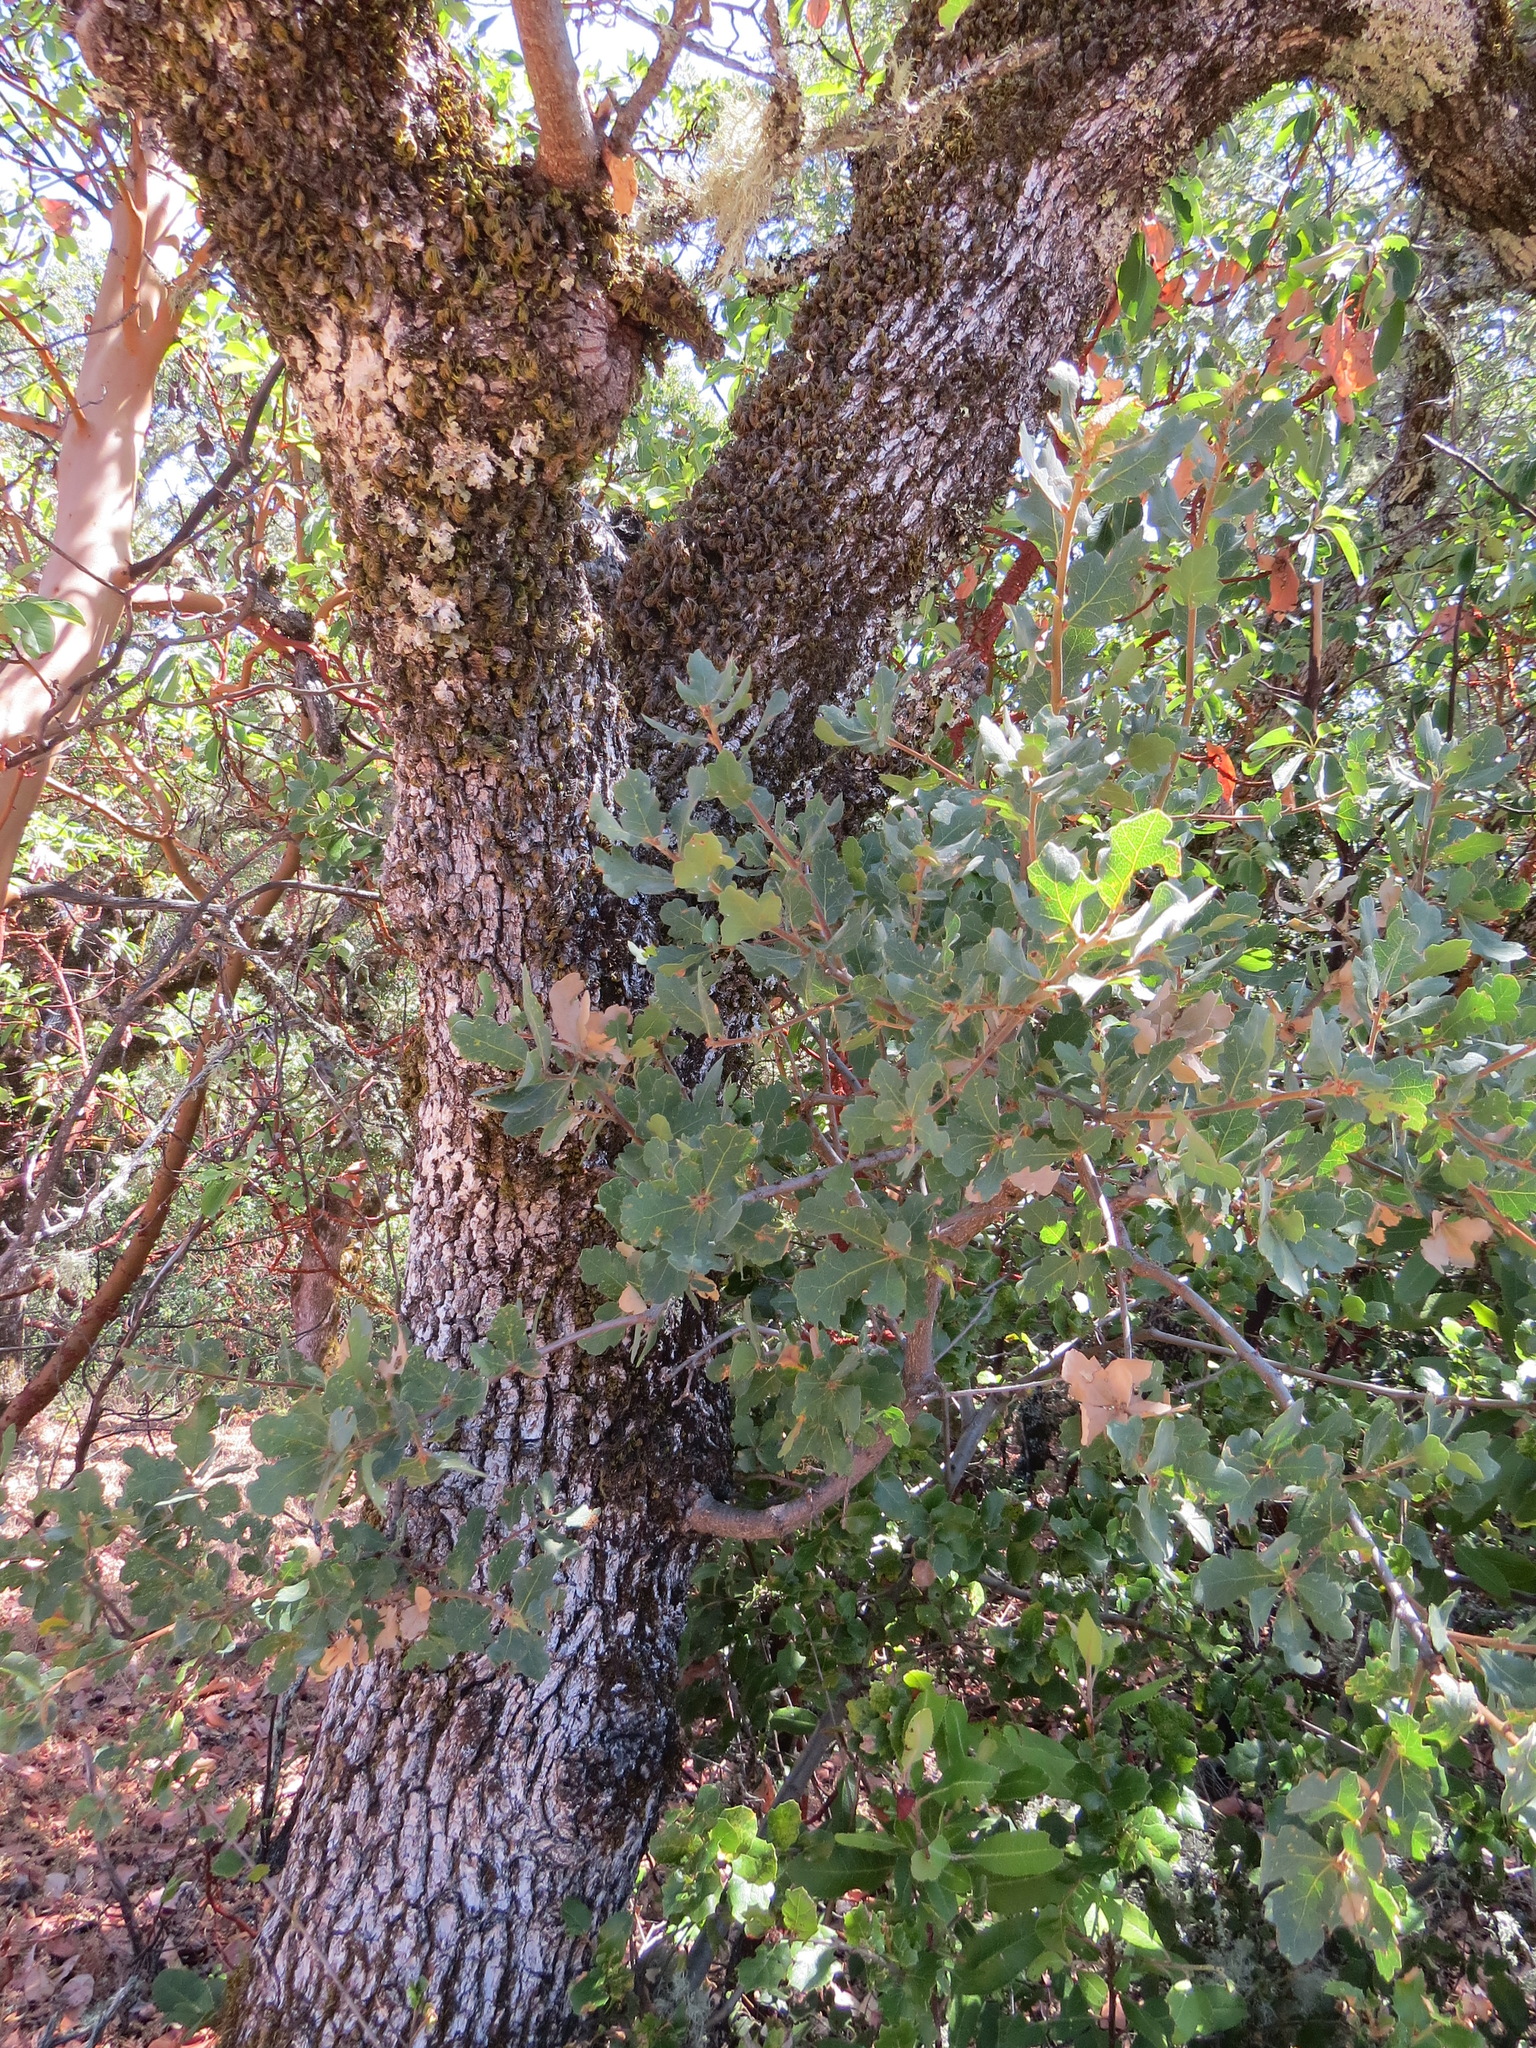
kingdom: Plantae
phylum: Tracheophyta
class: Magnoliopsida
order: Fagales
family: Fagaceae
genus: Quercus
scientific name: Quercus douglasii
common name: Blue oak
